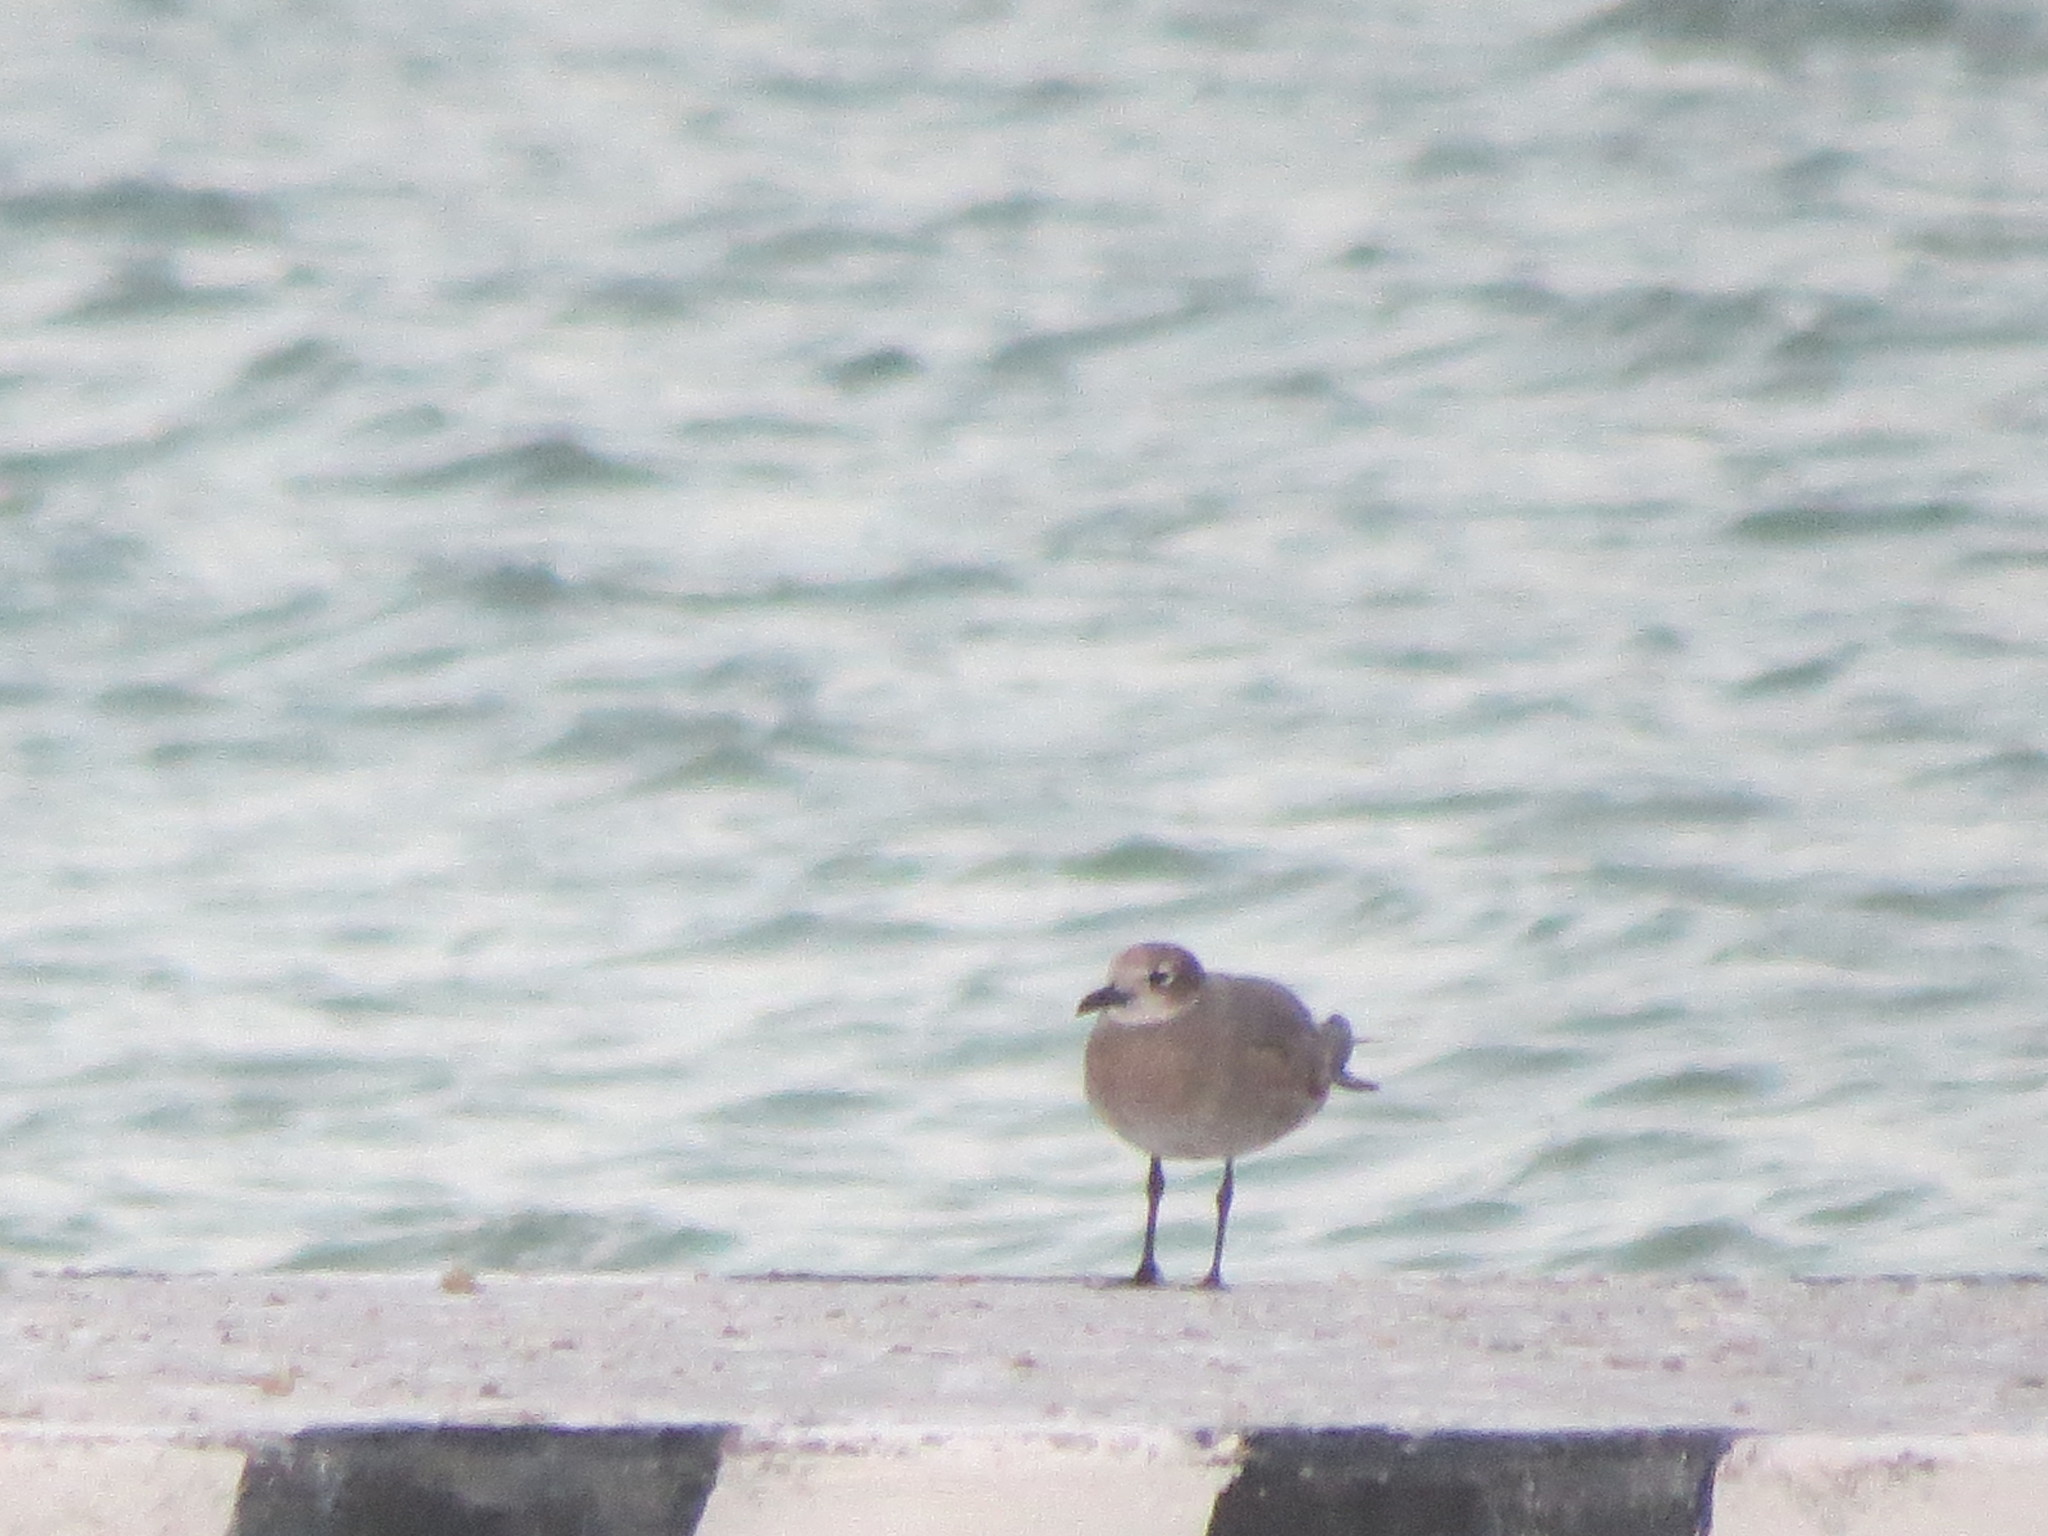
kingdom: Animalia
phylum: Chordata
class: Aves
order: Charadriiformes
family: Laridae
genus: Leucophaeus
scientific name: Leucophaeus atricilla
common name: Laughing gull
